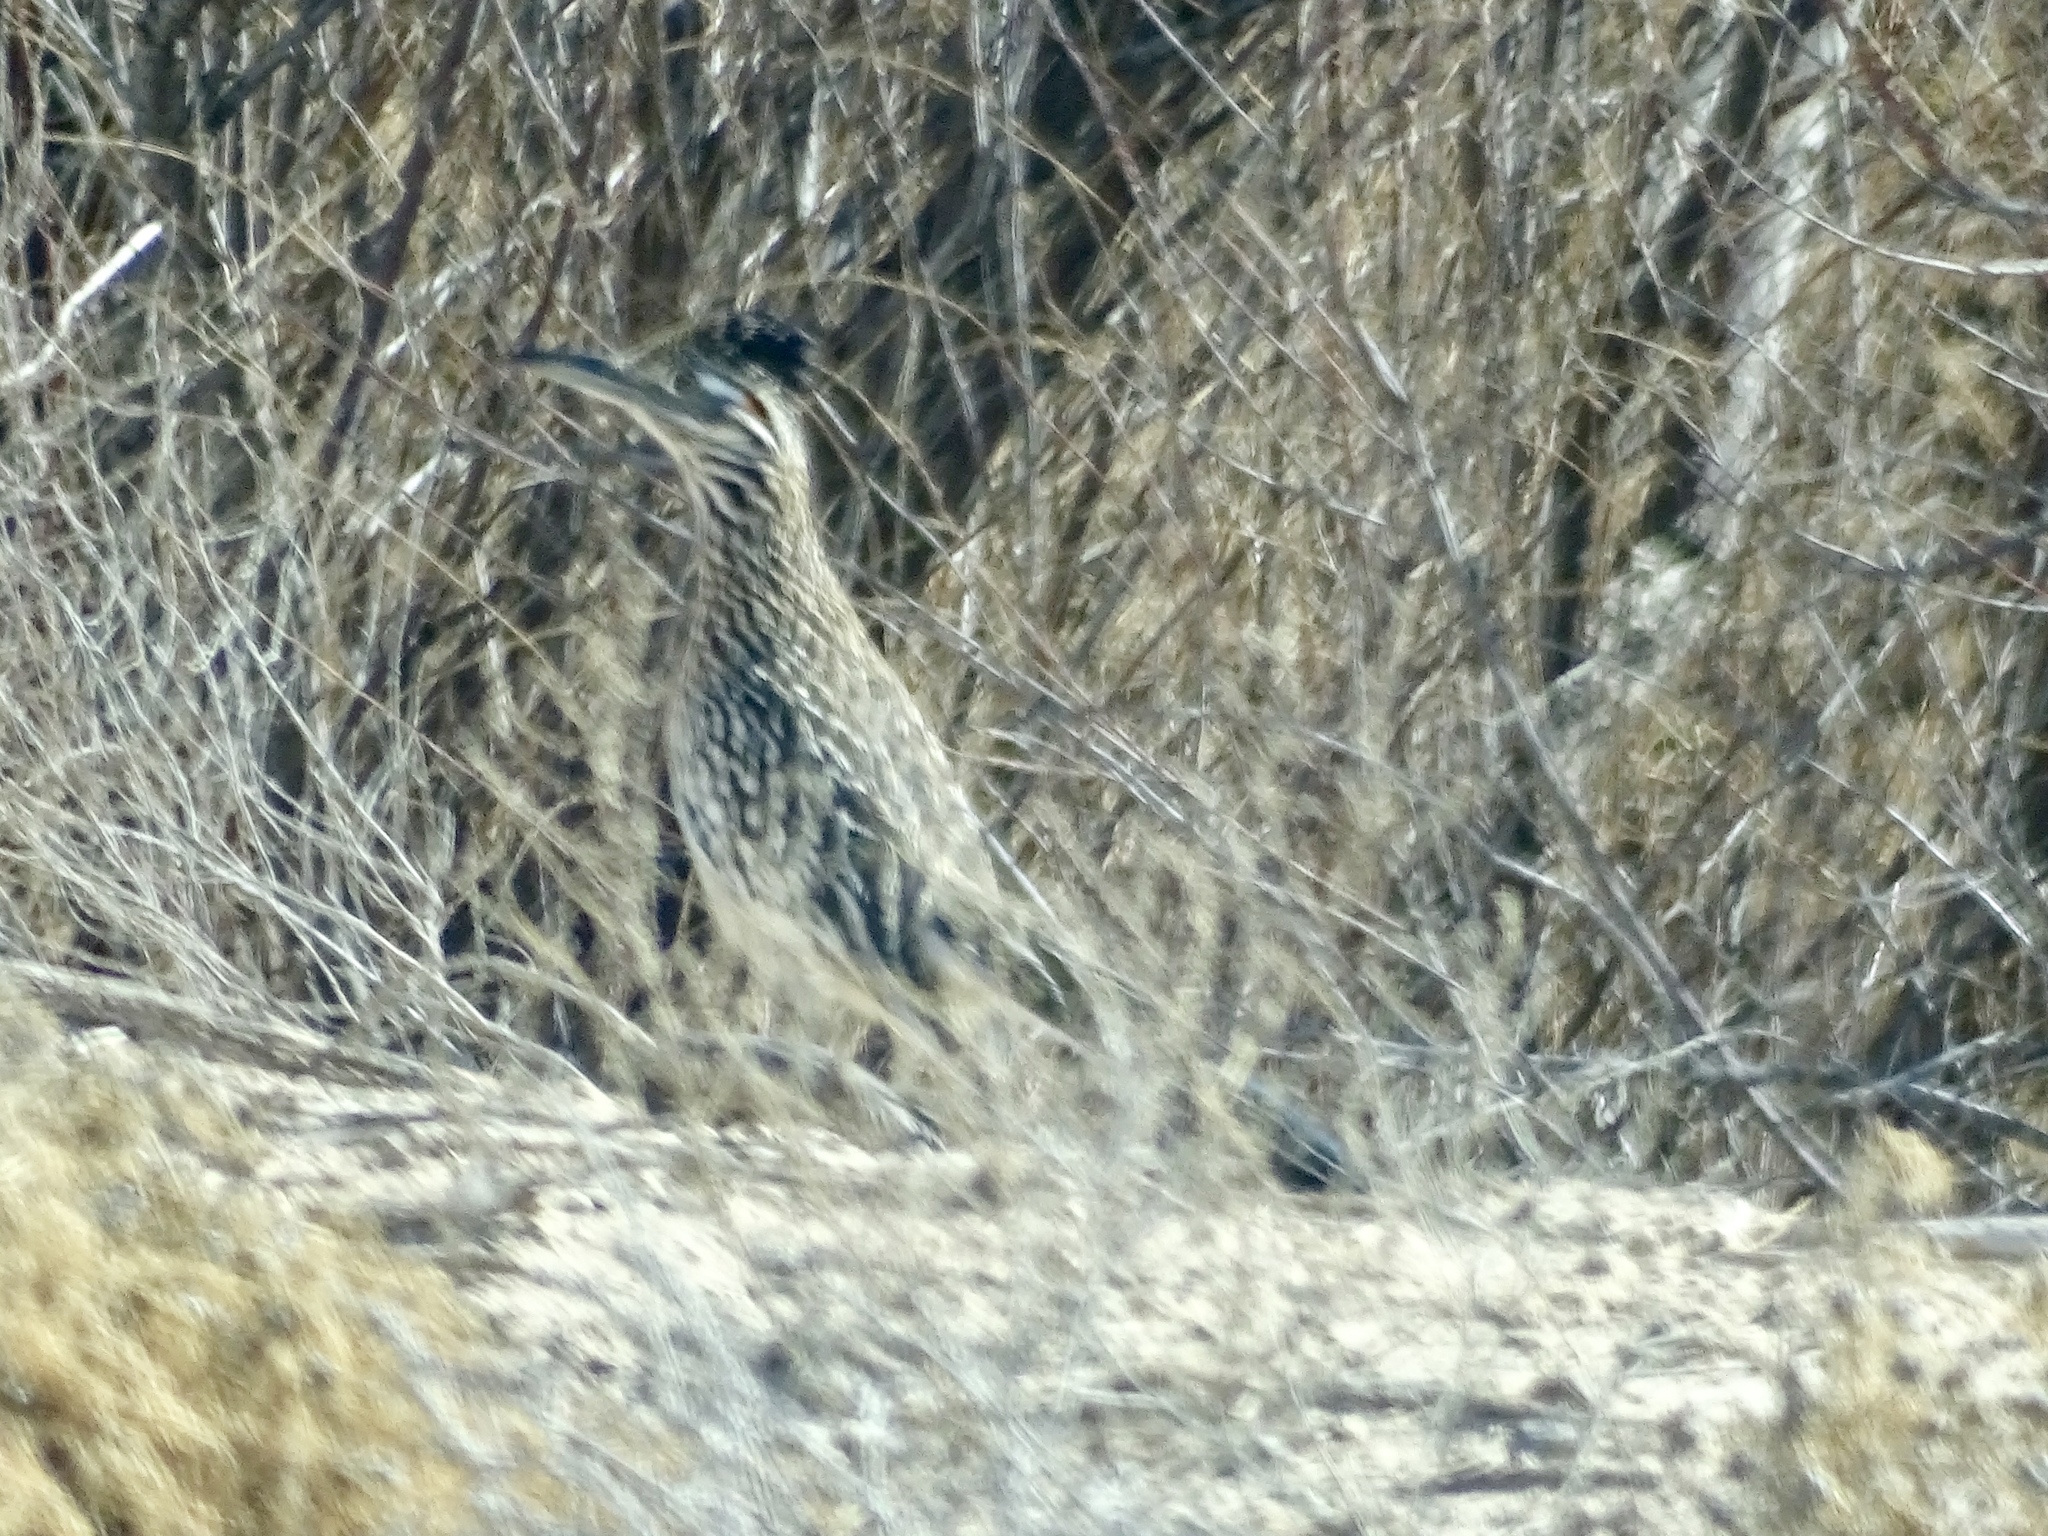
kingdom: Animalia
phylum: Chordata
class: Aves
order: Cuculiformes
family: Cuculidae
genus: Geococcyx
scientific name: Geococcyx californianus
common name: Greater roadrunner
